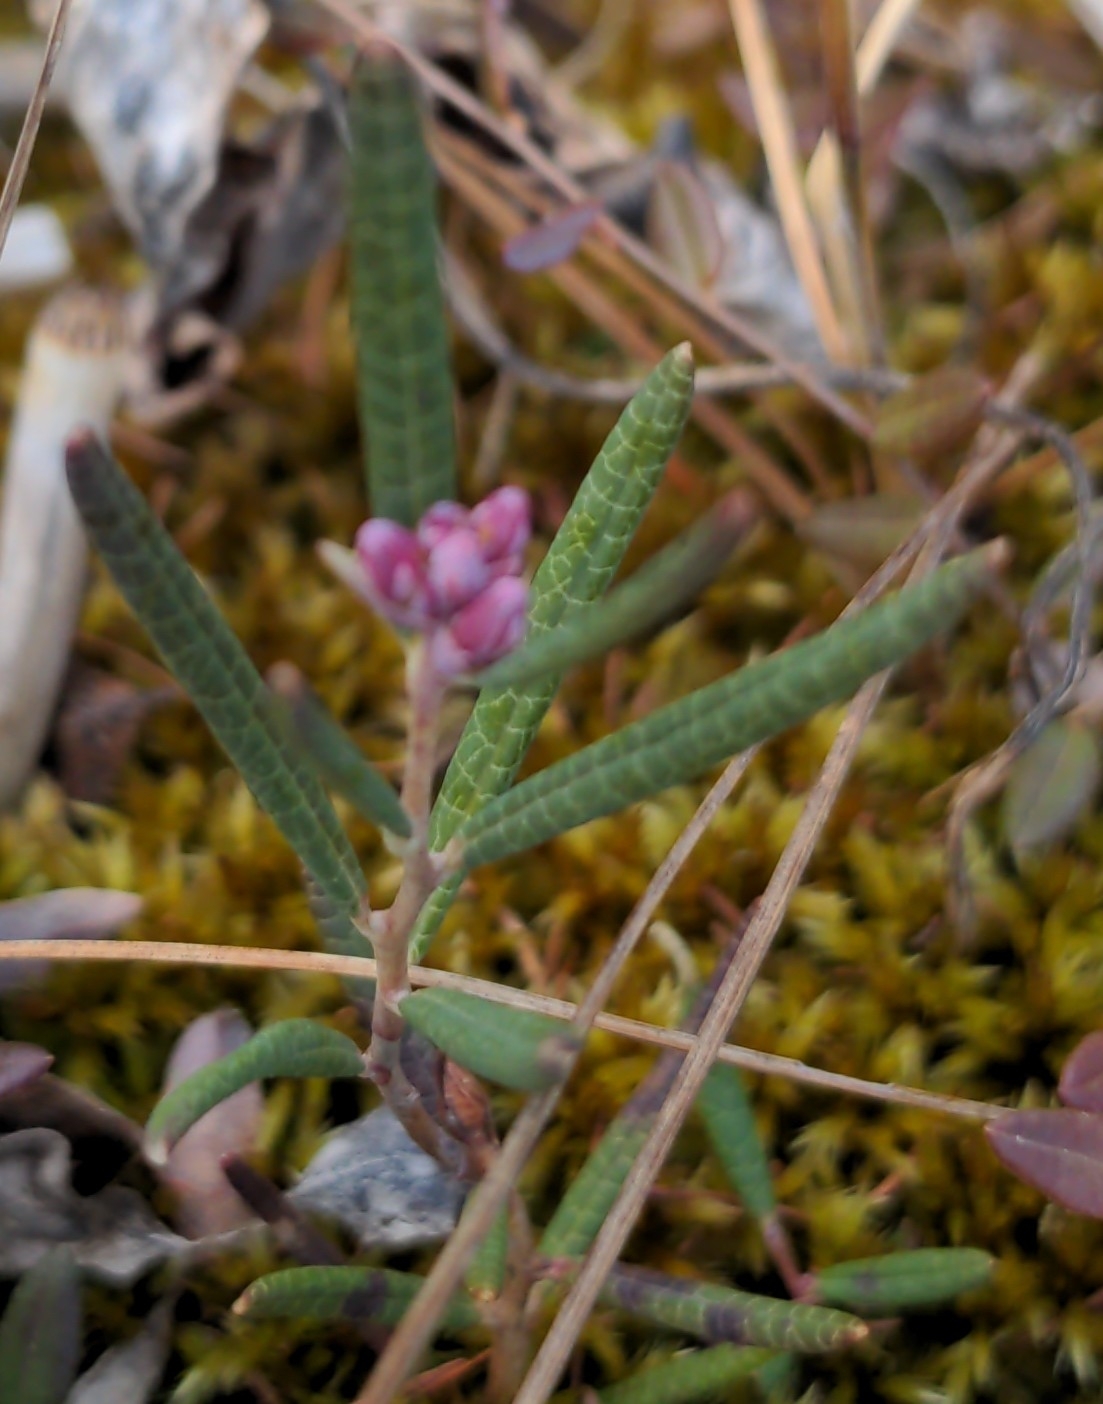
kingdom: Plantae
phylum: Tracheophyta
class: Magnoliopsida
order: Ericales
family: Ericaceae
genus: Andromeda
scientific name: Andromeda polifolia
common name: Bog-rosemary
